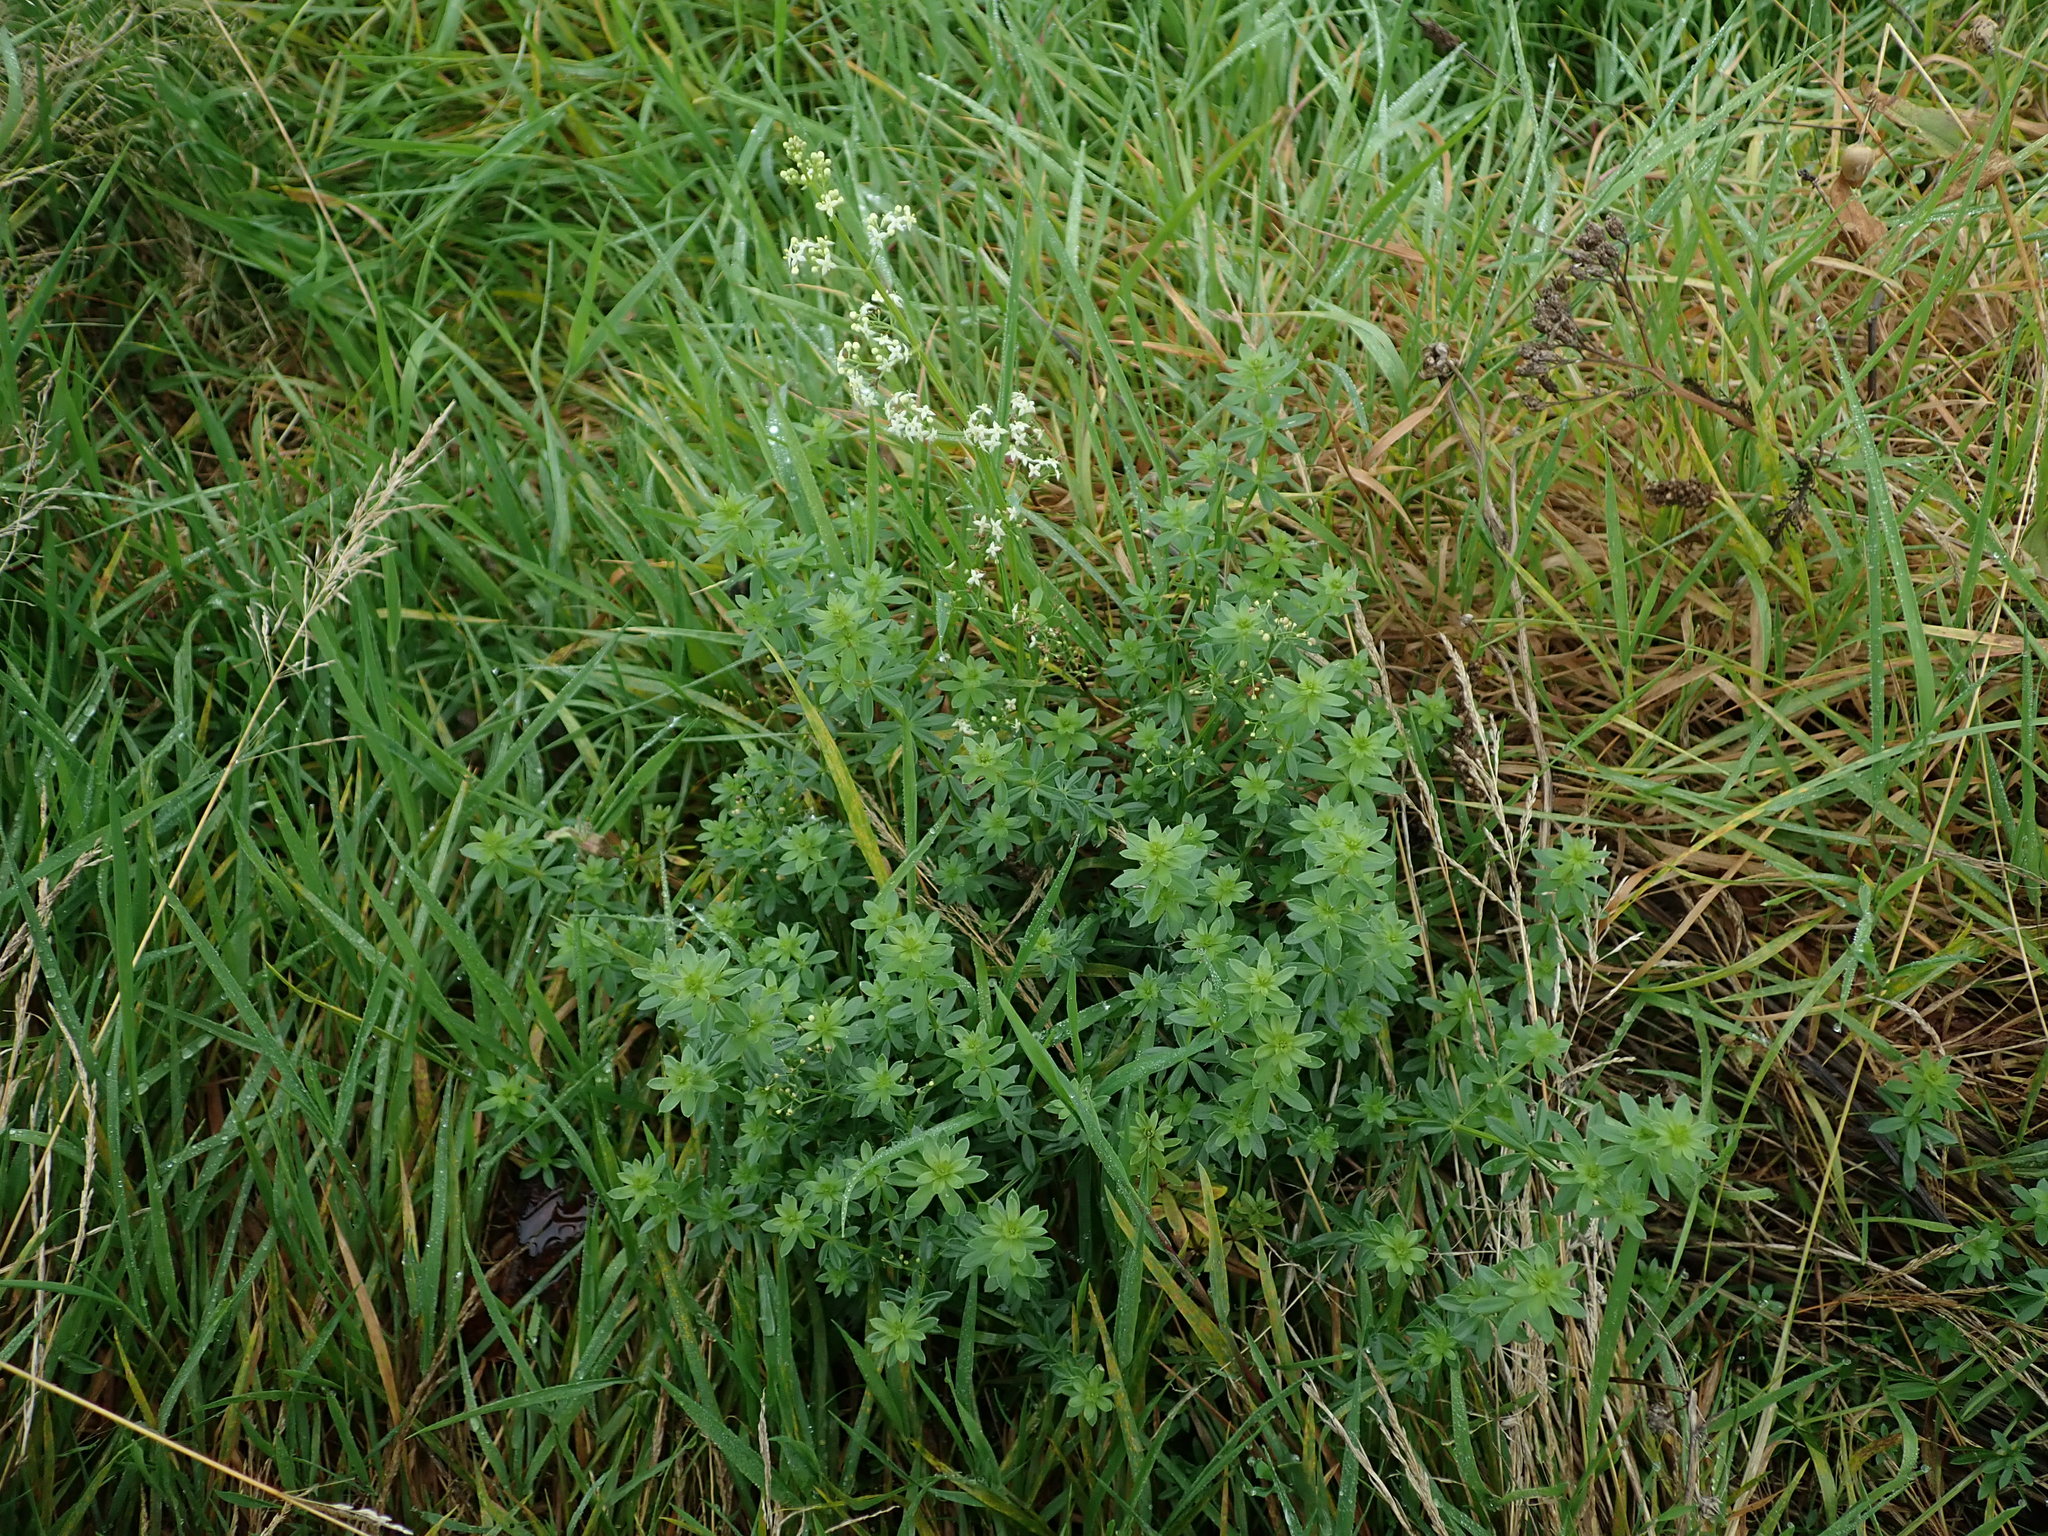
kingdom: Plantae
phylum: Tracheophyta
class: Magnoliopsida
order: Gentianales
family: Rubiaceae
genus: Galium
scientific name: Galium album
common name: White bedstraw
